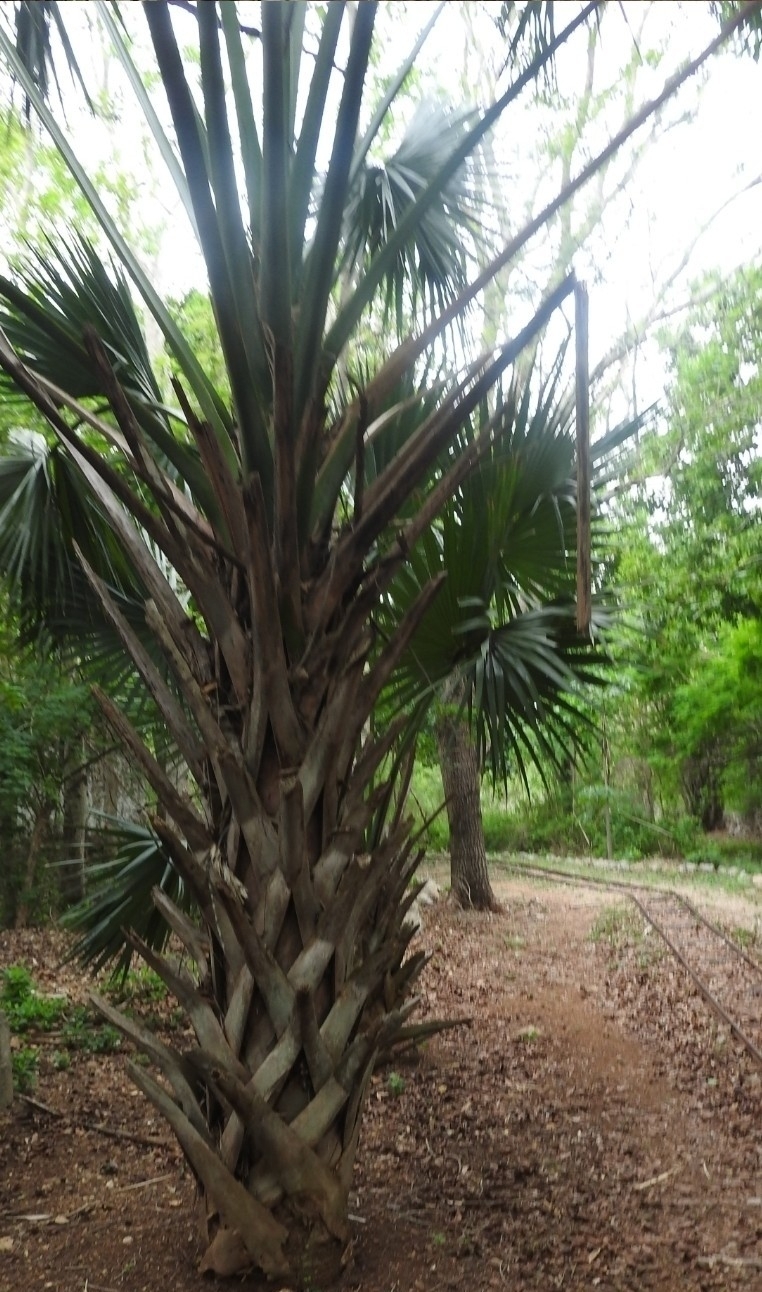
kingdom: Plantae
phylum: Tracheophyta
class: Liliopsida
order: Arecales
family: Arecaceae
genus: Sabal
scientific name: Sabal mexicana
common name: Texas palmetto
